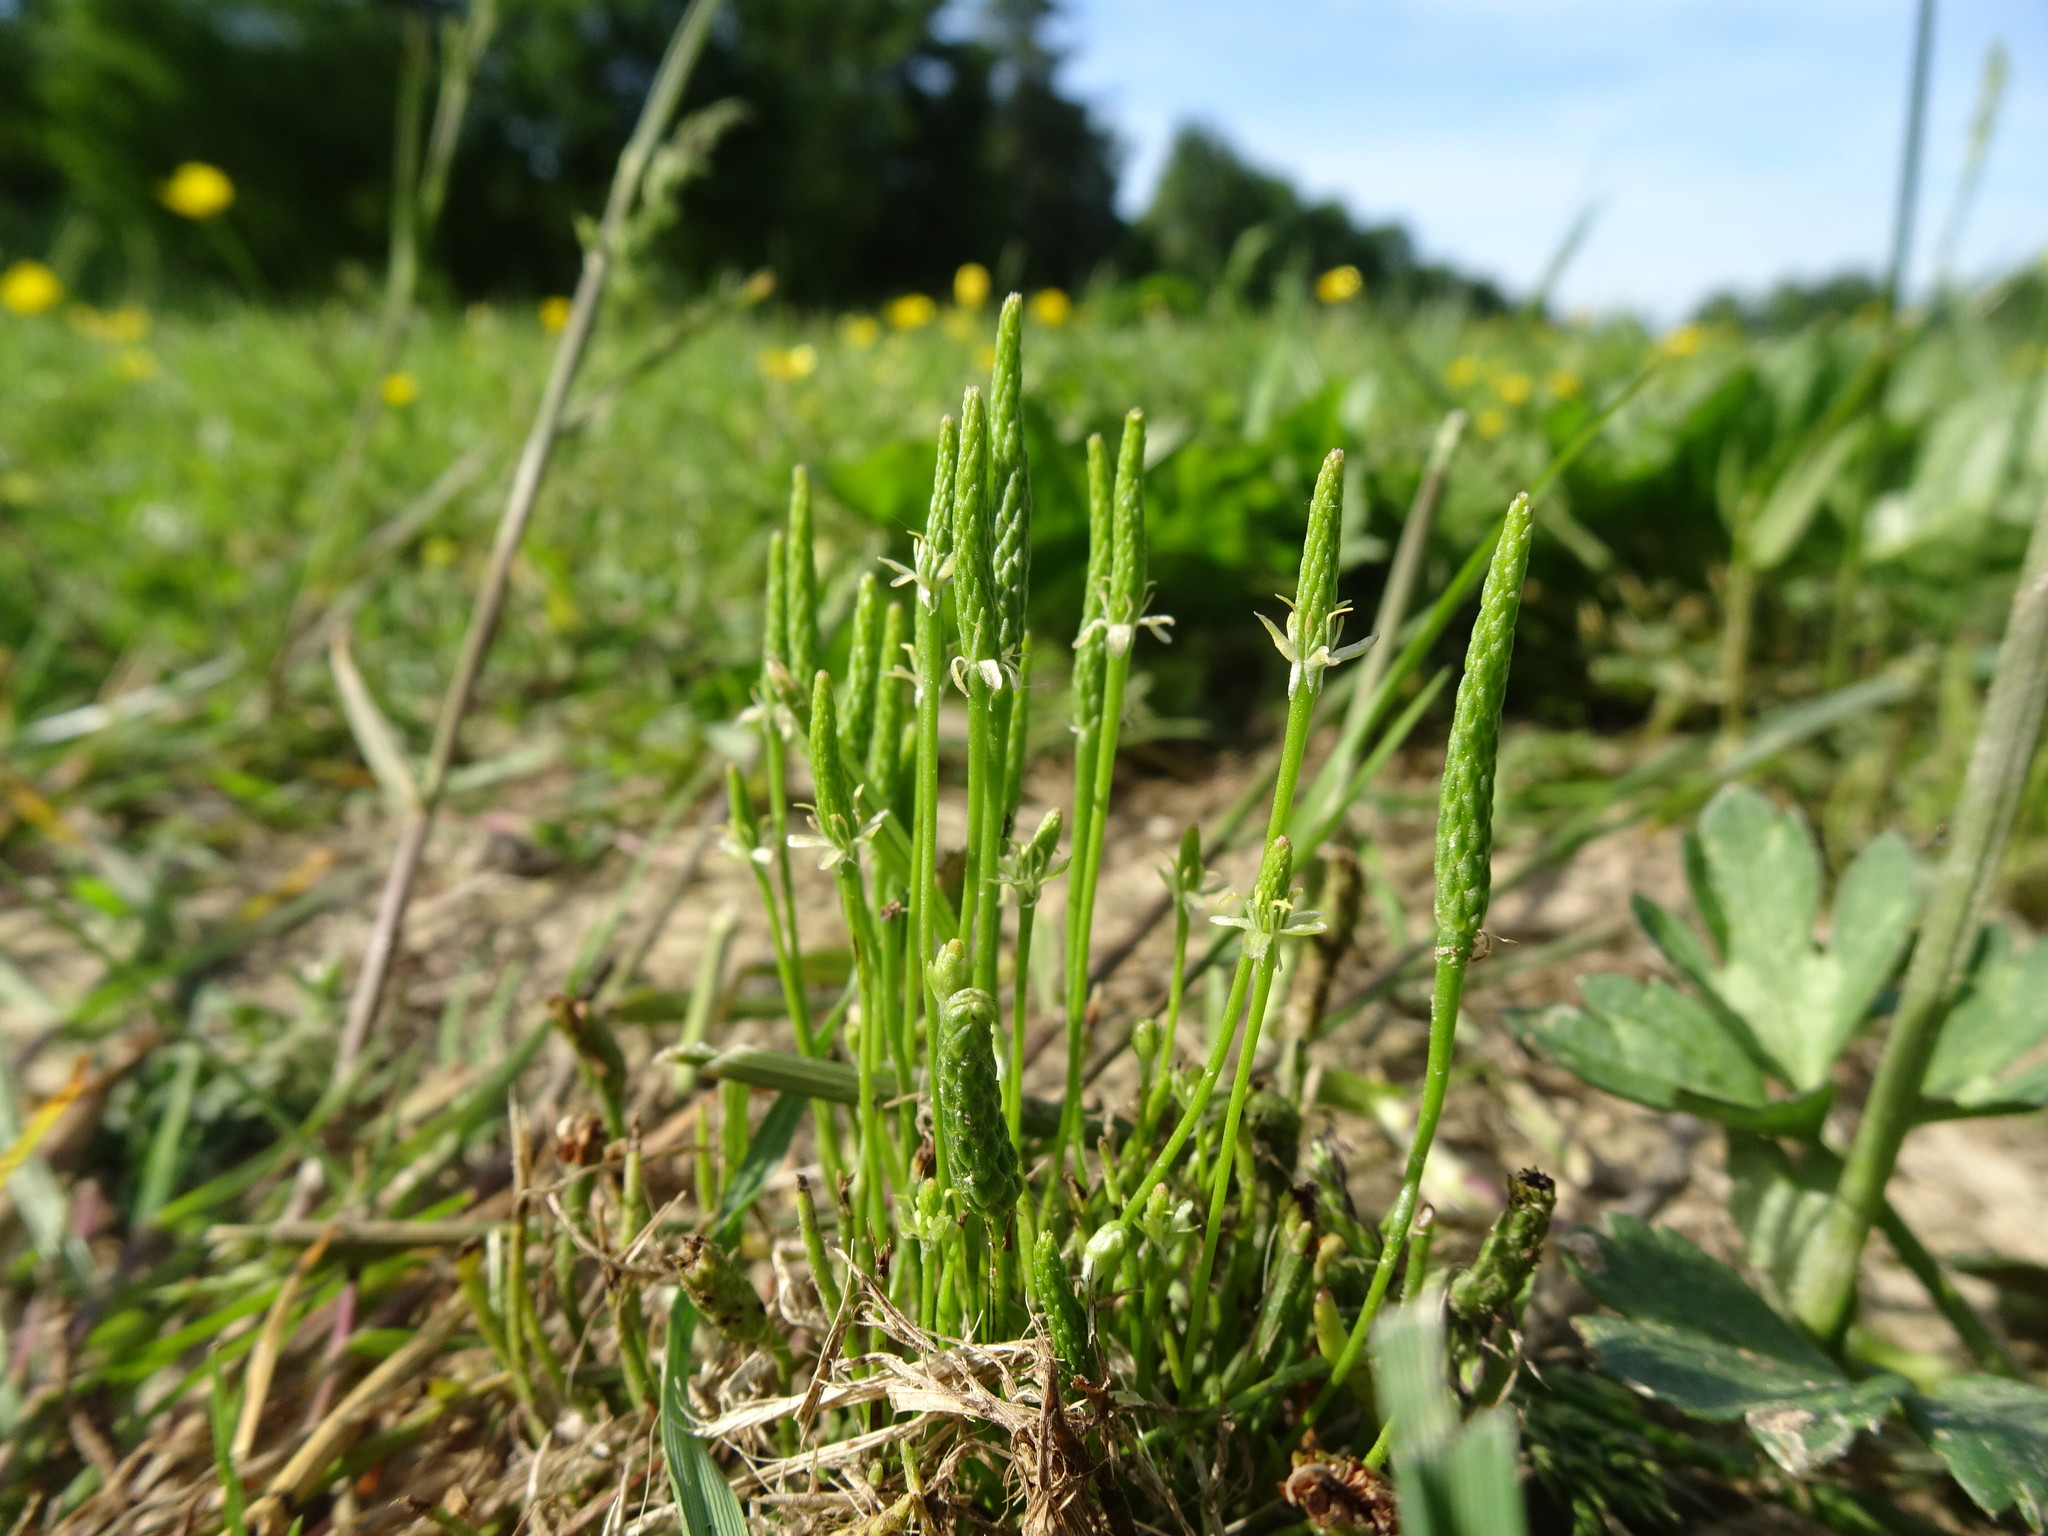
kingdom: Plantae
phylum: Tracheophyta
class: Magnoliopsida
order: Ranunculales
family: Ranunculaceae
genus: Myosurus
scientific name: Myosurus minimus
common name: Mousetail
